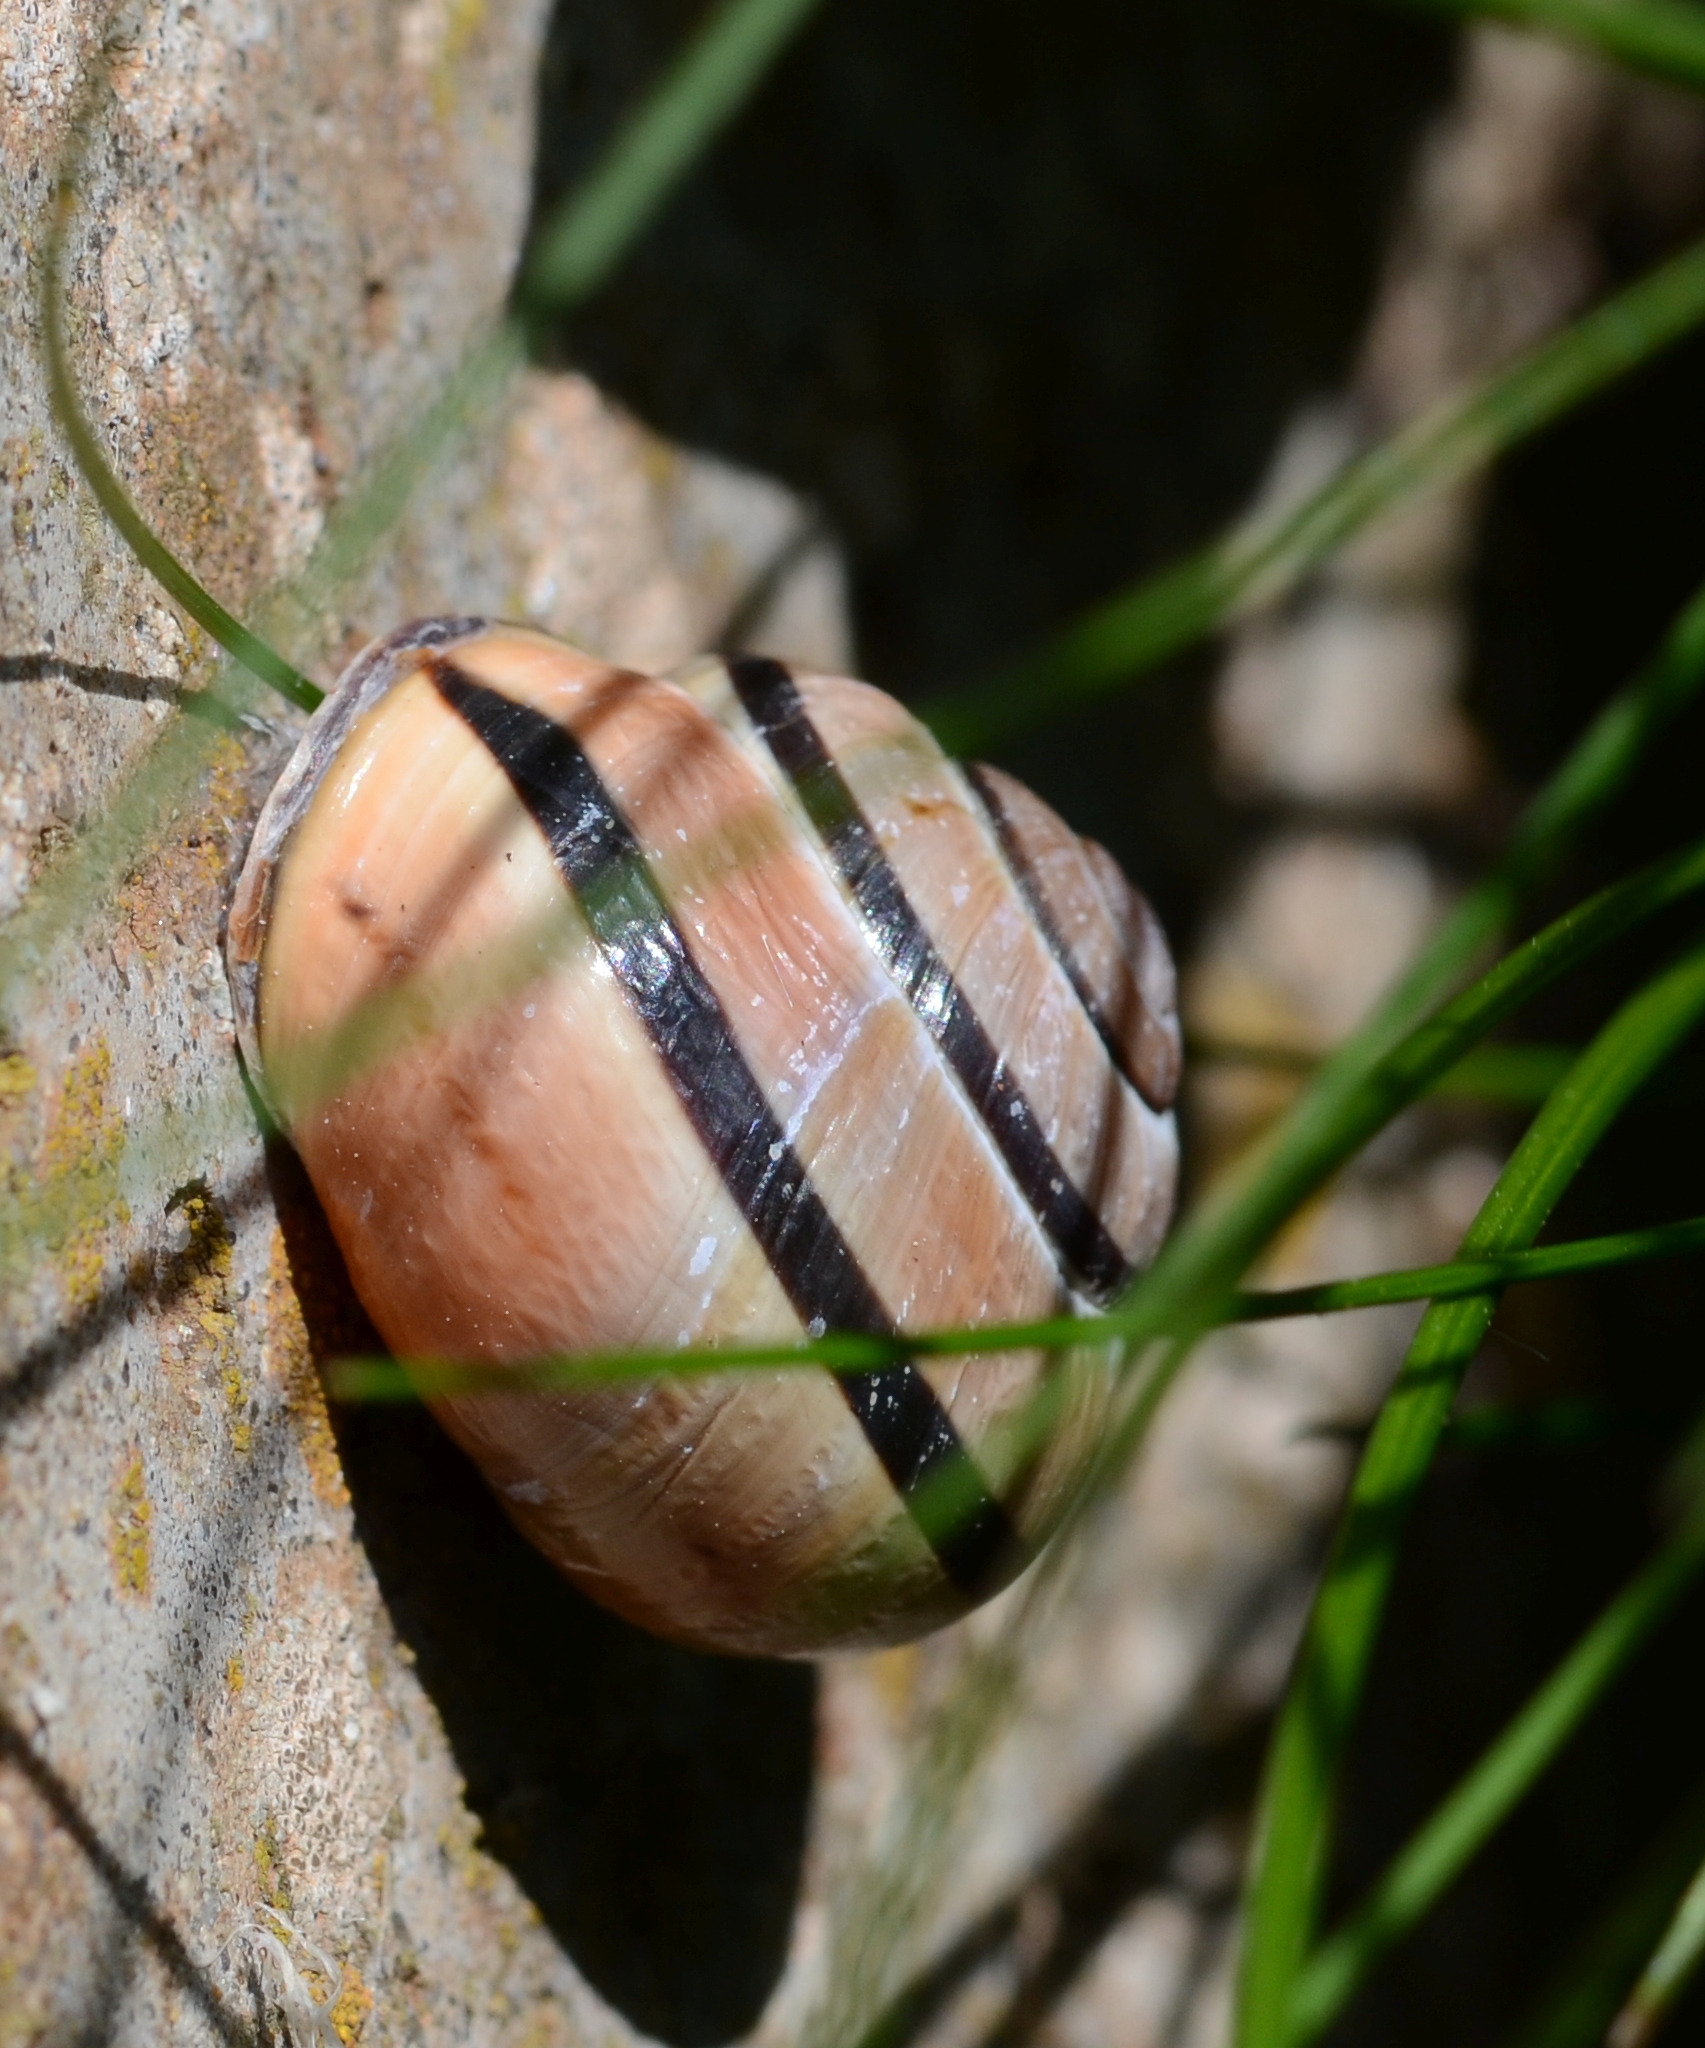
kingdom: Animalia
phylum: Mollusca
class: Gastropoda
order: Stylommatophora
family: Helicidae
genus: Cepaea
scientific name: Cepaea nemoralis
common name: Grovesnail
